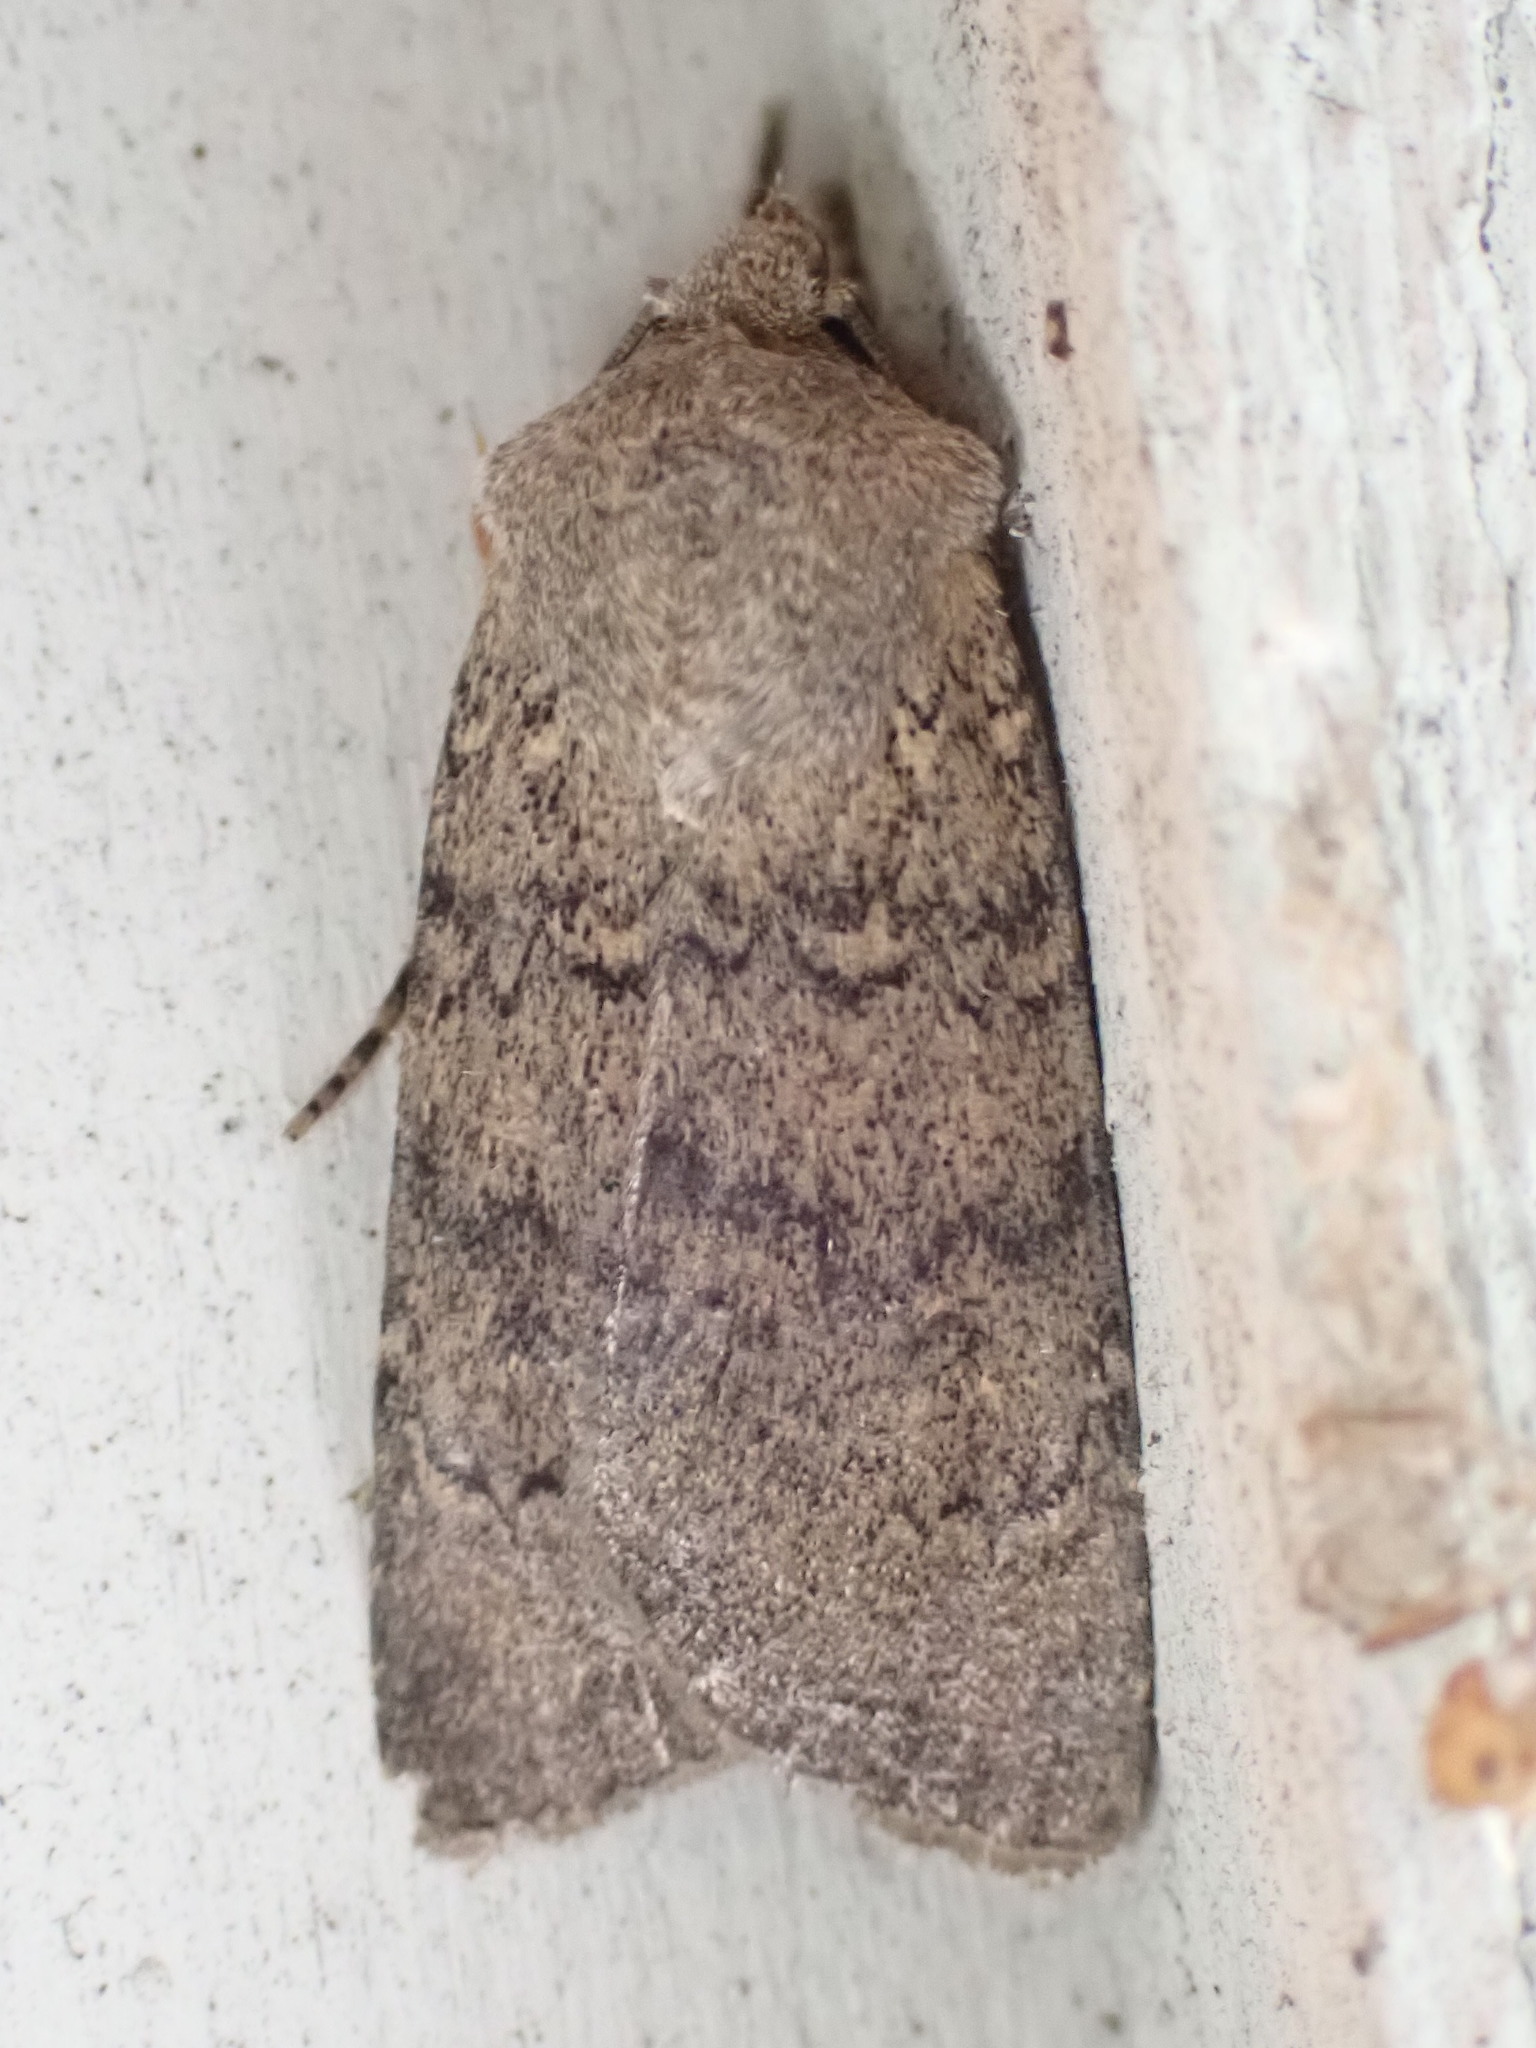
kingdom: Animalia
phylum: Arthropoda
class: Insecta
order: Lepidoptera
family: Noctuidae
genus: Euxoa
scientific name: Euxoa comosa
